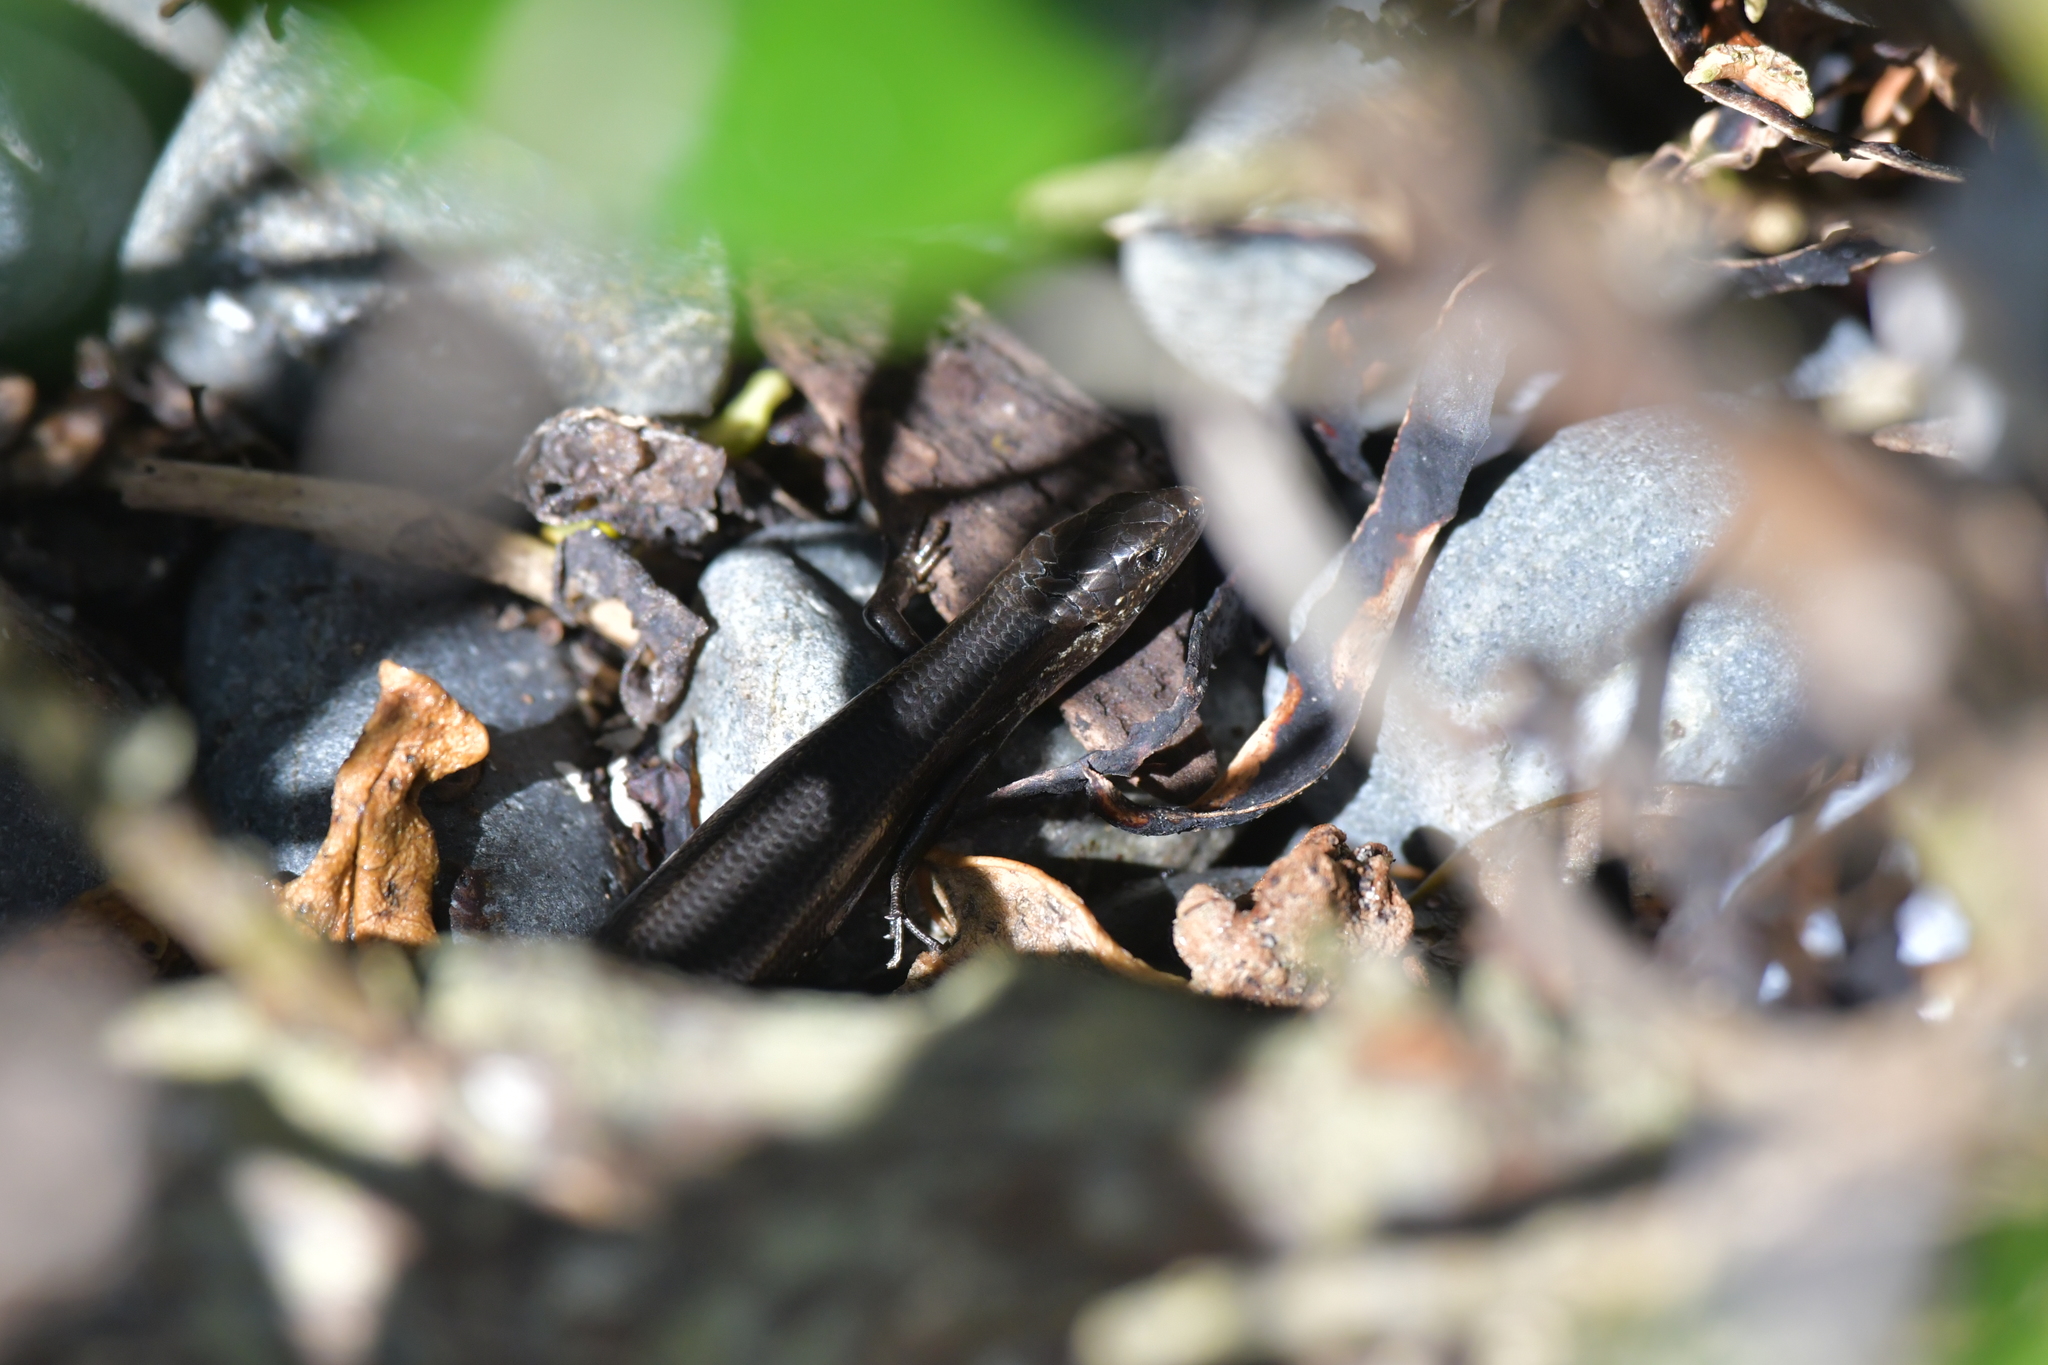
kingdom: Animalia
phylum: Chordata
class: Squamata
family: Scincidae
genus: Oligosoma
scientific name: Oligosoma polychroma
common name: Common new zealand skink
